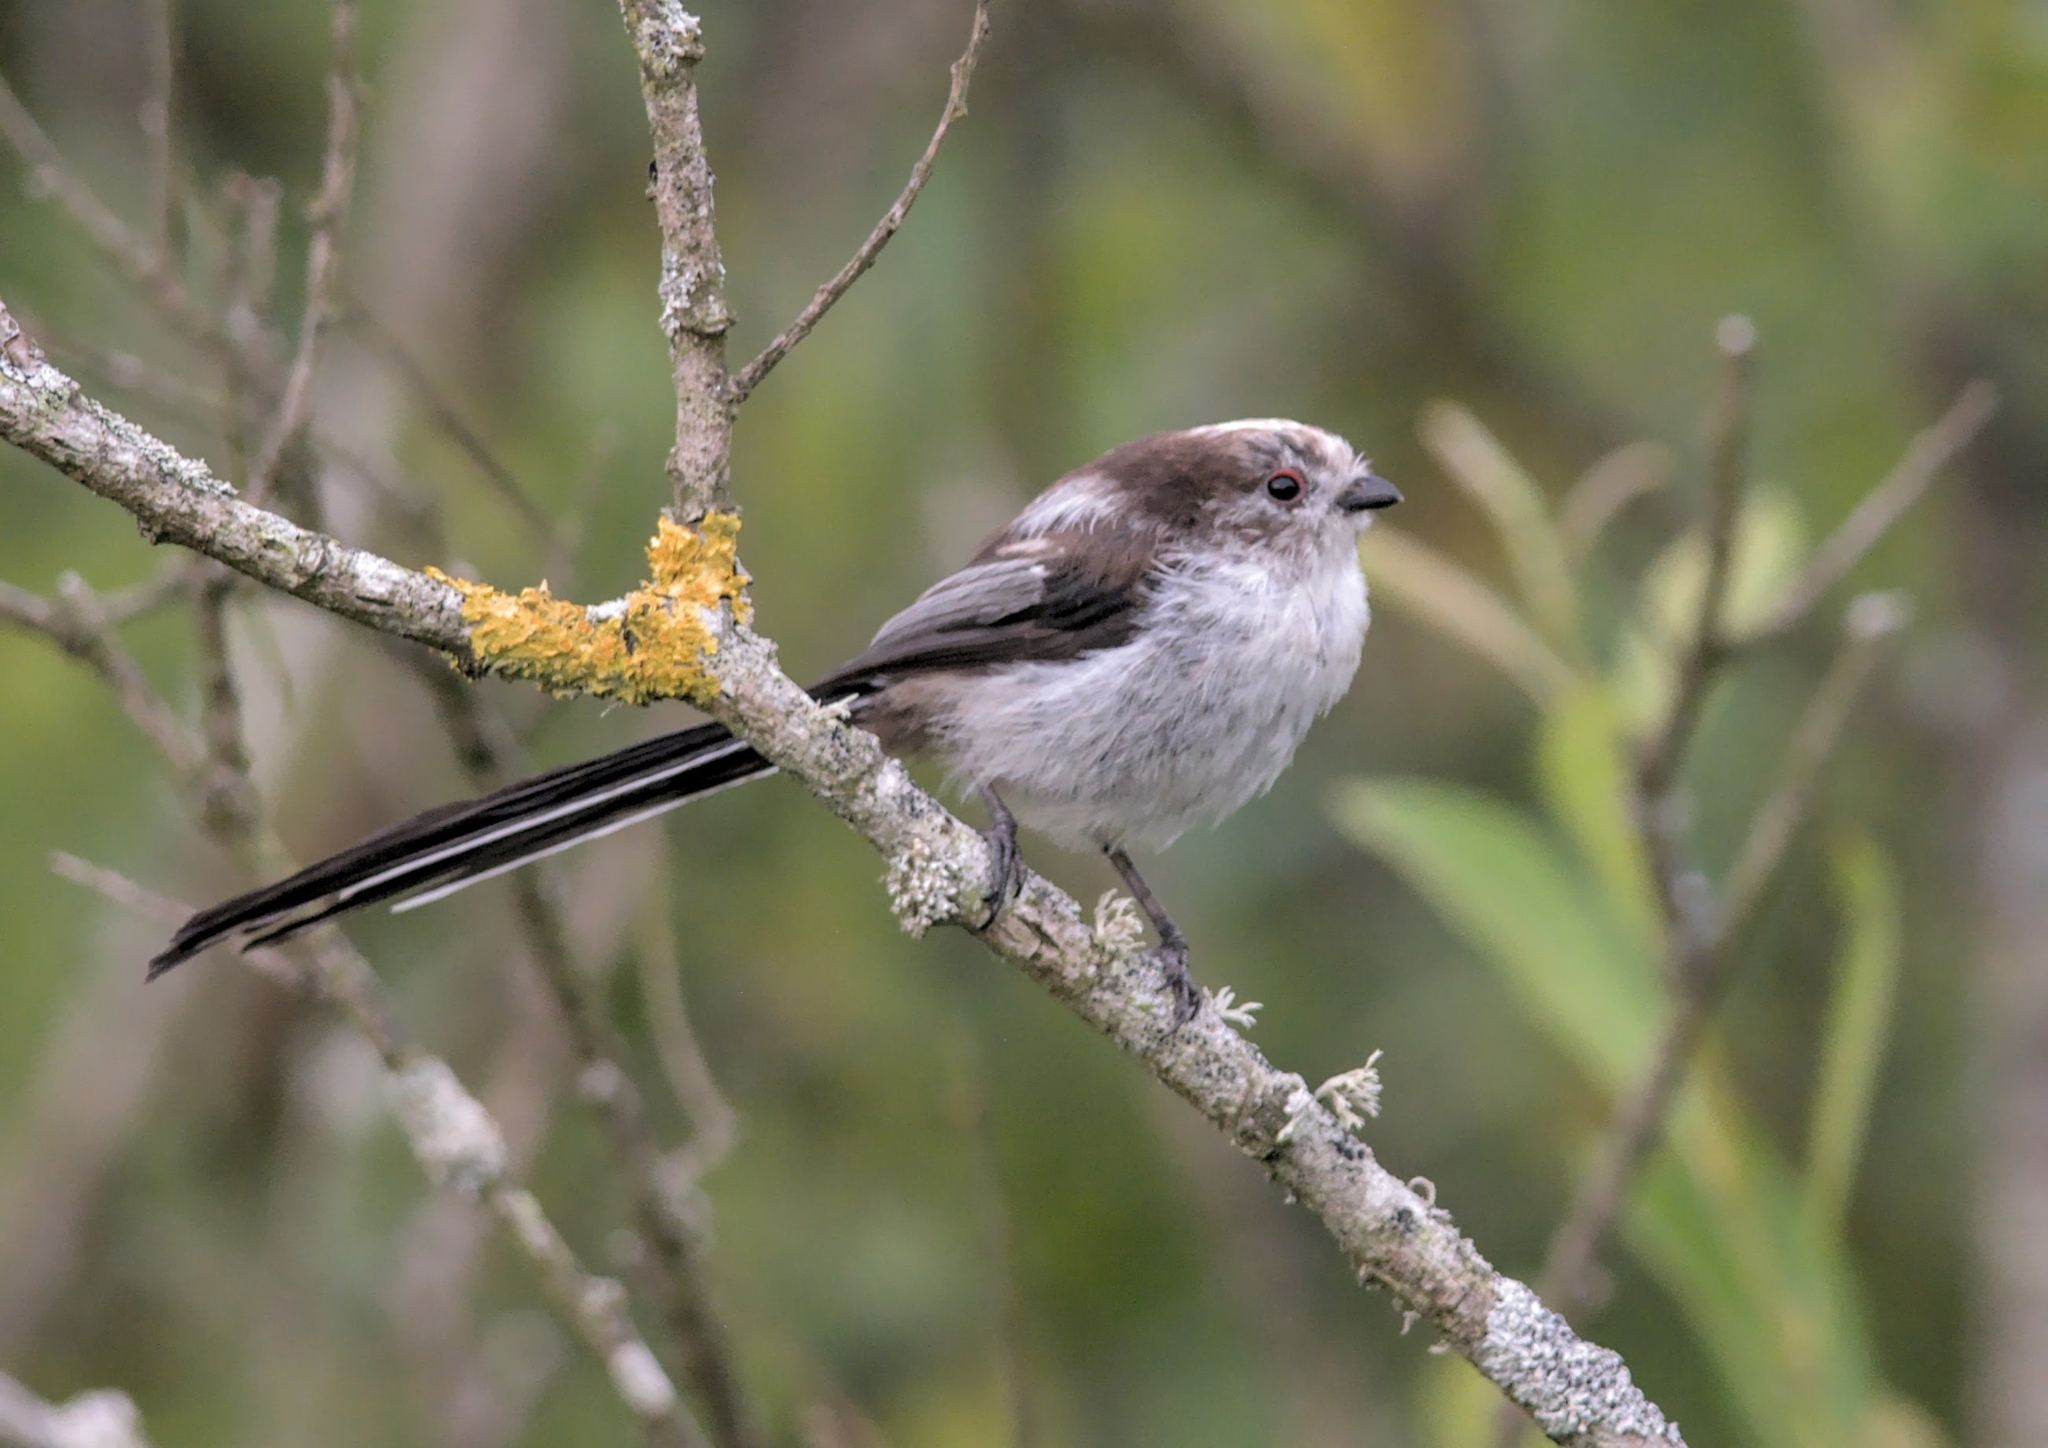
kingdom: Animalia
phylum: Chordata
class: Aves
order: Passeriformes
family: Aegithalidae
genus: Aegithalos
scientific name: Aegithalos caudatus
